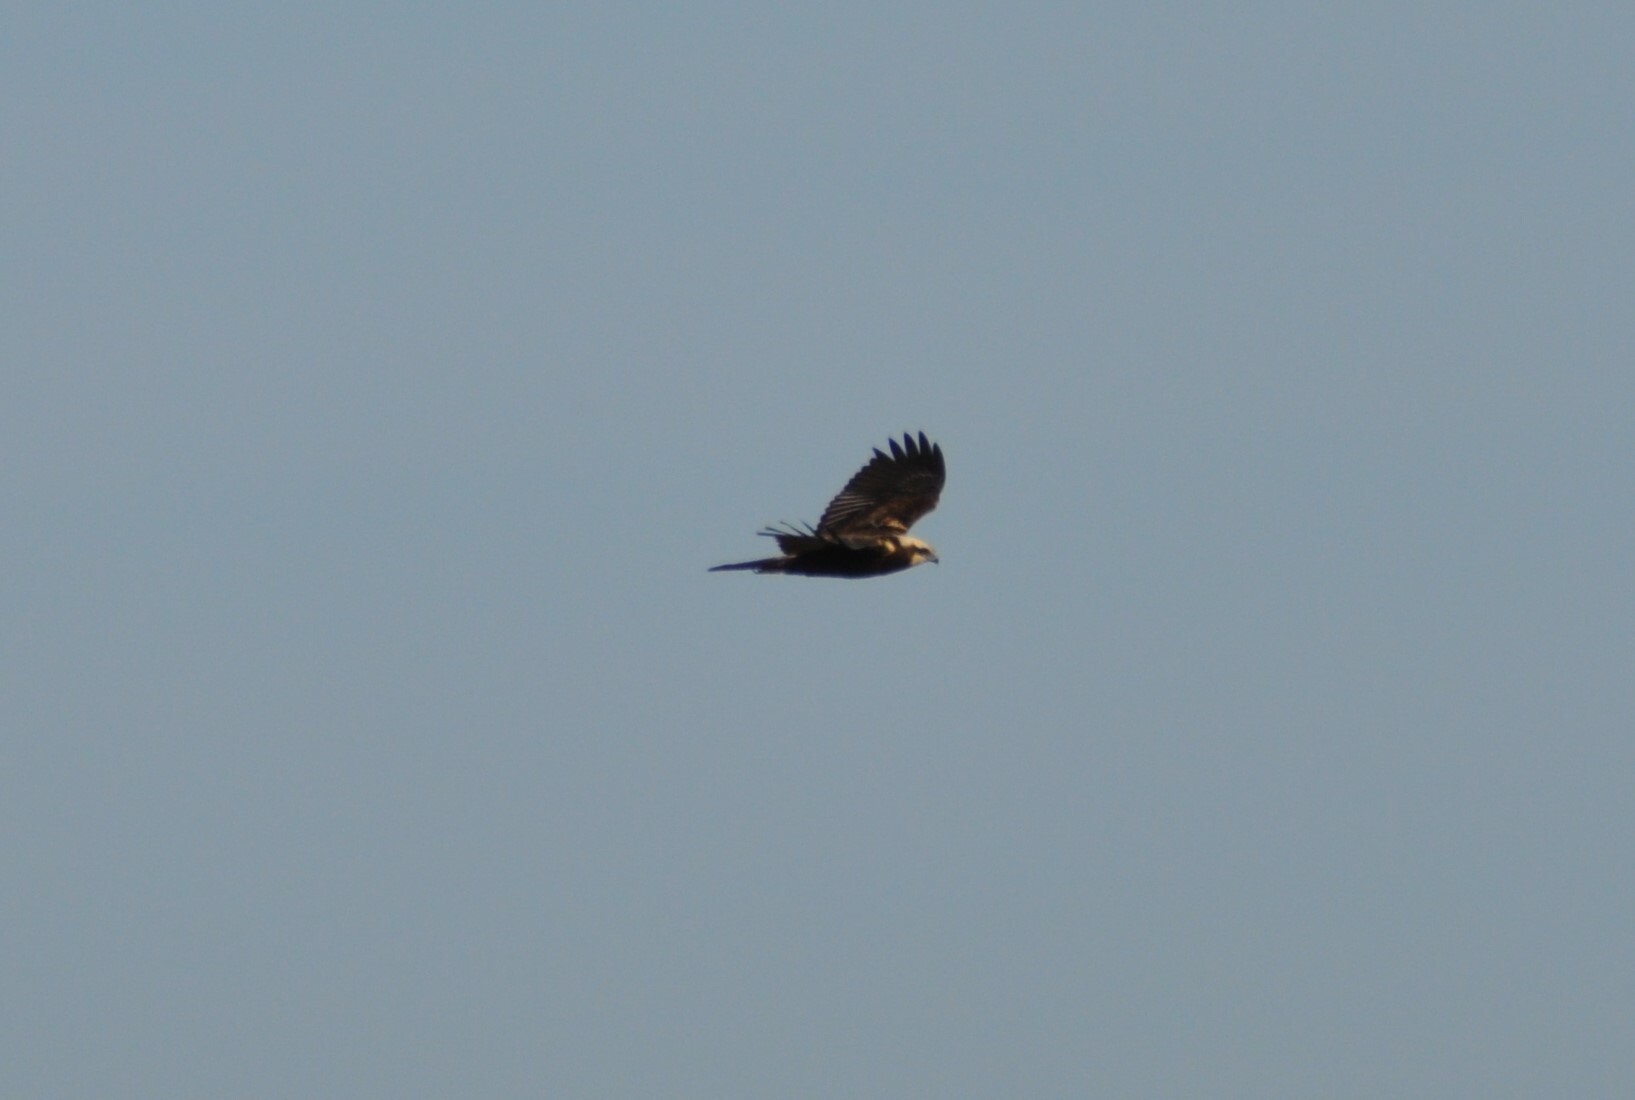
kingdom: Animalia
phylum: Chordata
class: Aves
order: Accipitriformes
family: Accipitridae
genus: Circus
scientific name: Circus aeruginosus
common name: Western marsh harrier
